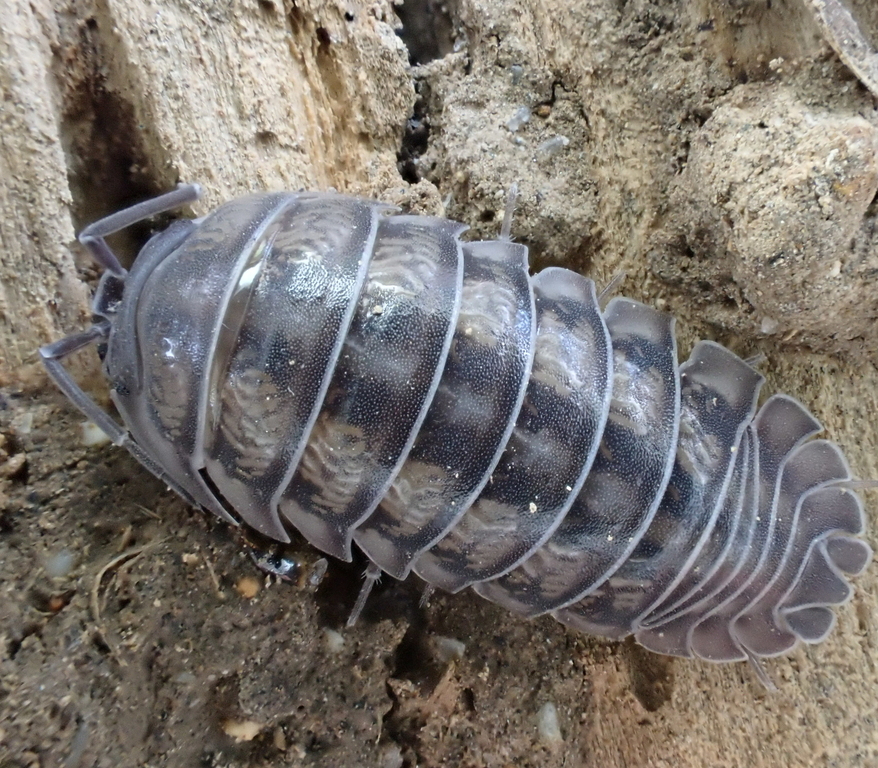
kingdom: Animalia
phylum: Arthropoda
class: Malacostraca
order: Isopoda
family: Armadillidiidae
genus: Armadillidium
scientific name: Armadillidium nasatum
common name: Isopod
